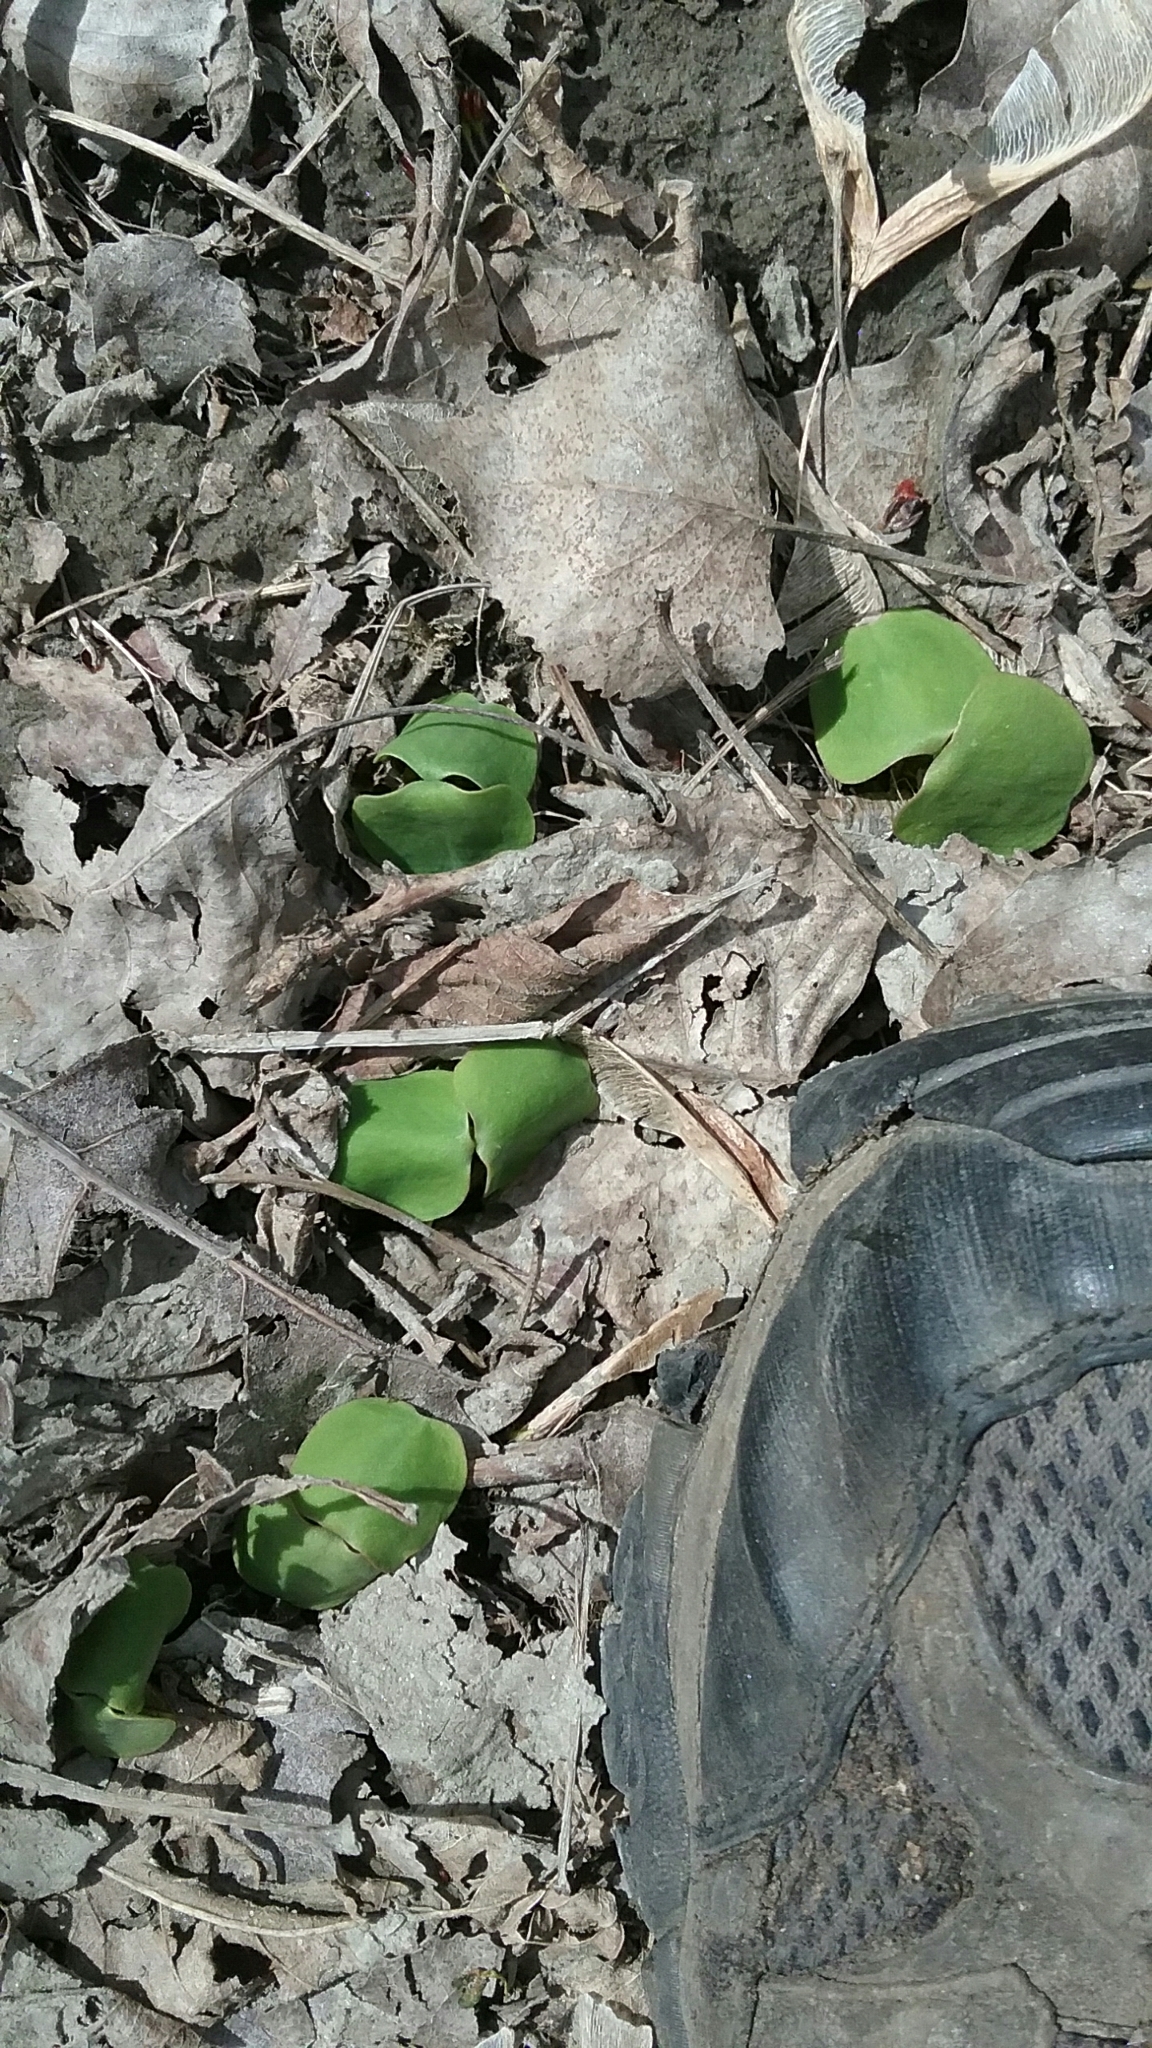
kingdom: Plantae
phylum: Tracheophyta
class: Magnoliopsida
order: Ericales
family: Balsaminaceae
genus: Impatiens
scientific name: Impatiens
